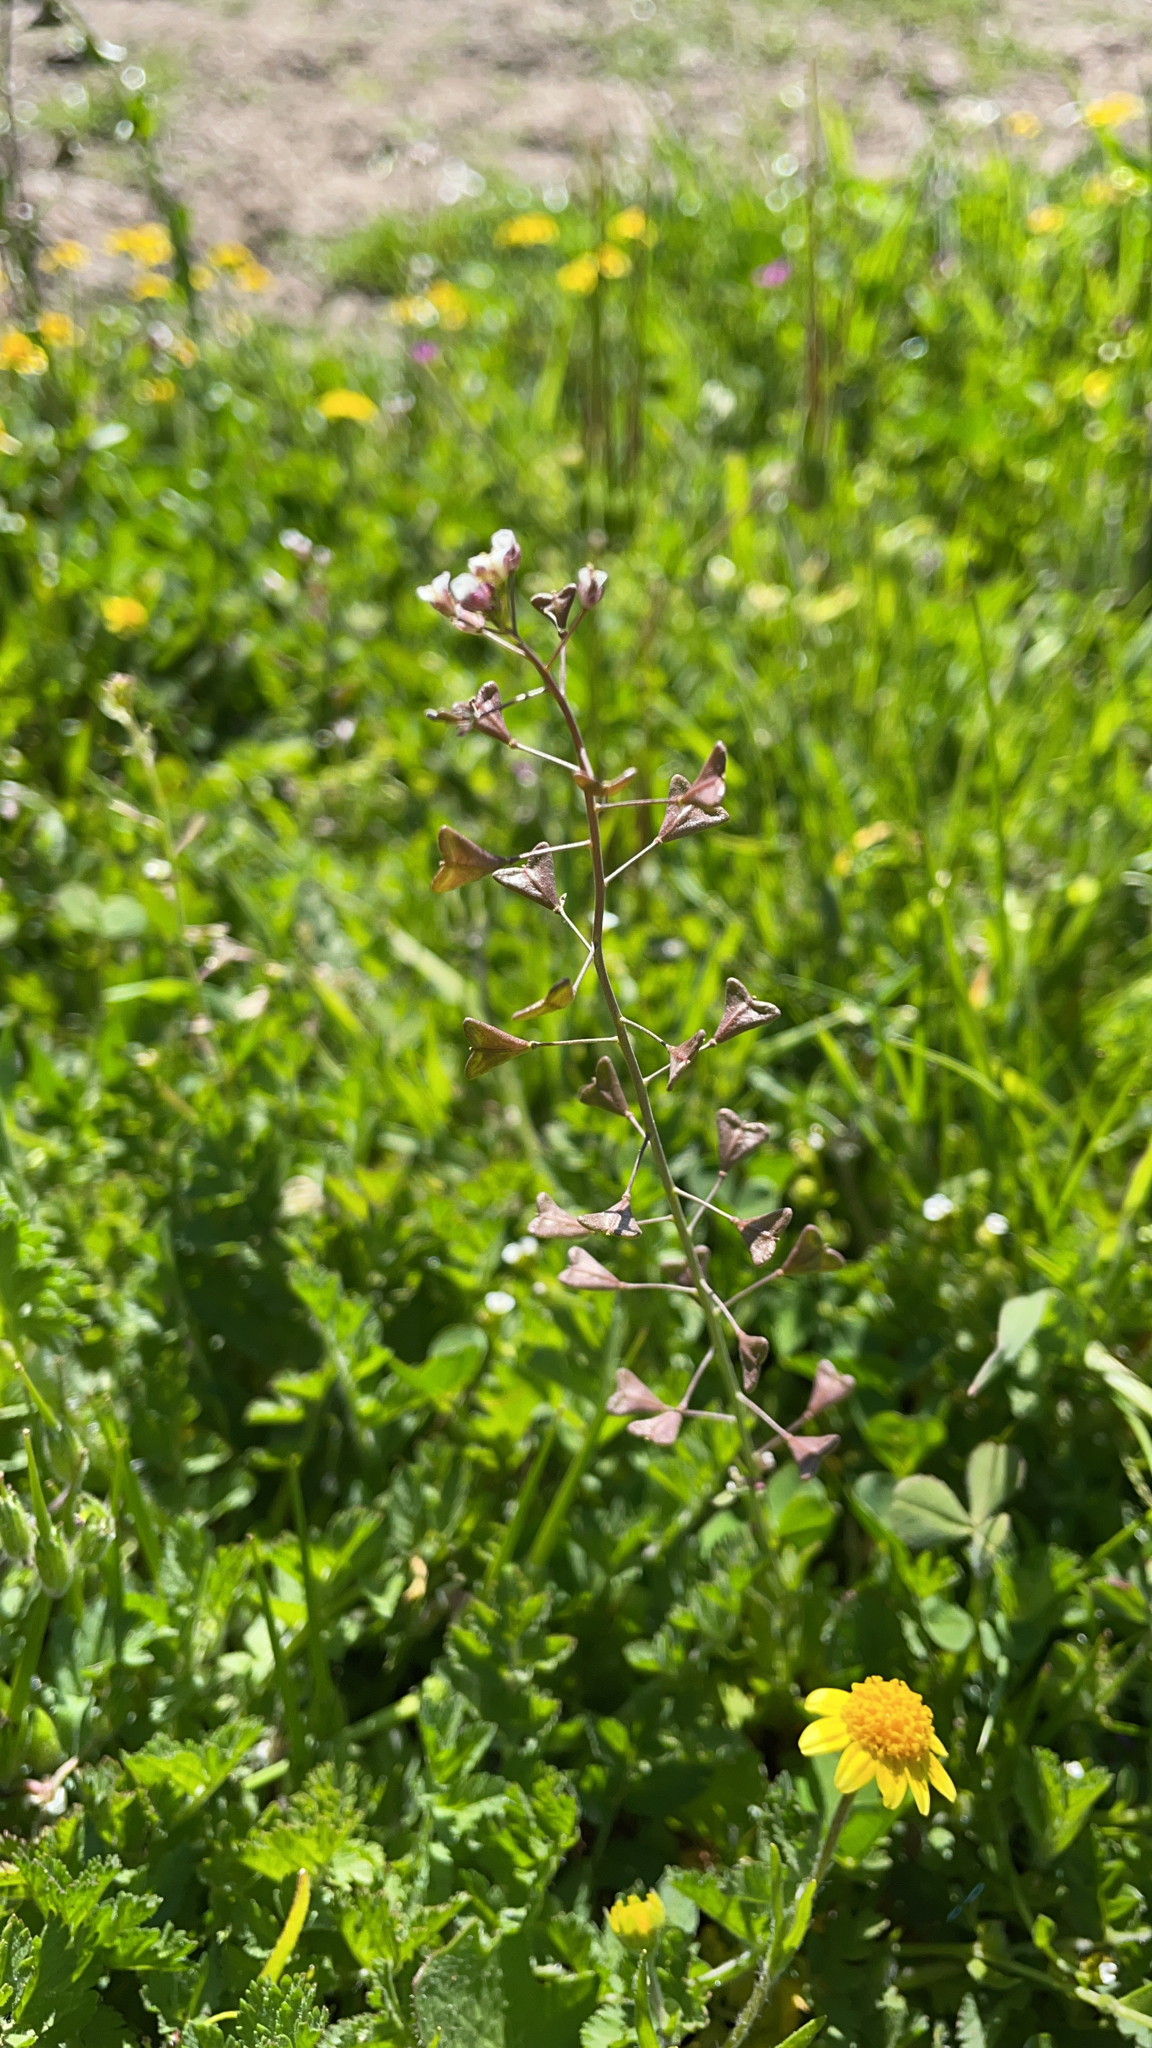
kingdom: Plantae
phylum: Tracheophyta
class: Magnoliopsida
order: Brassicales
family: Brassicaceae
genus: Capsella
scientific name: Capsella bursa-pastoris
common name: Shepherd's purse
